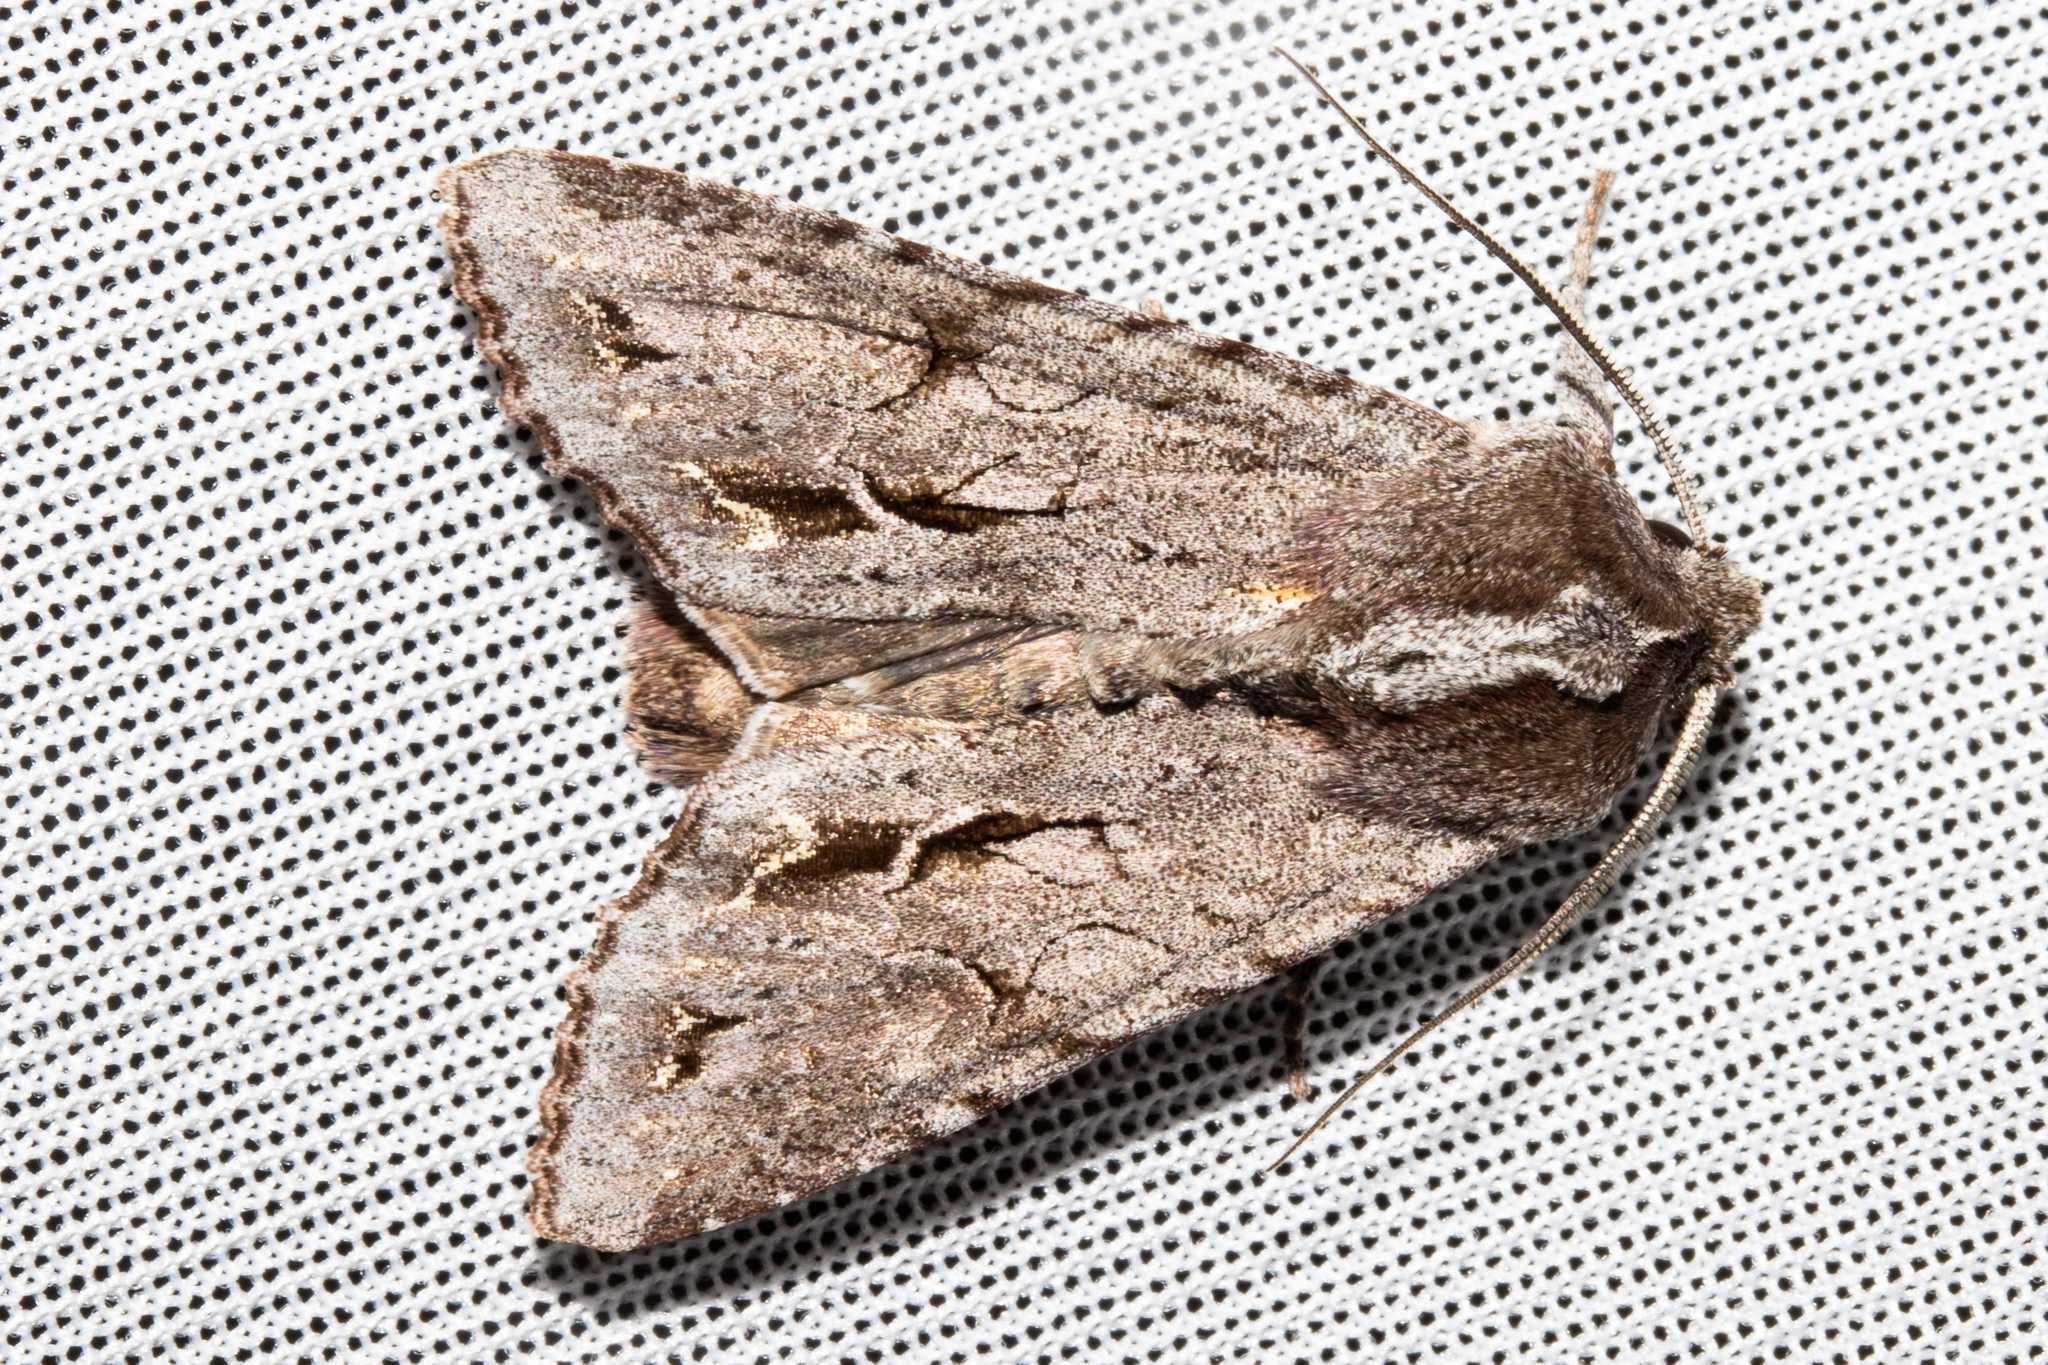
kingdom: Animalia
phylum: Arthropoda
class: Insecta
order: Lepidoptera
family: Noctuidae
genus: Ichneutica
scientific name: Ichneutica
